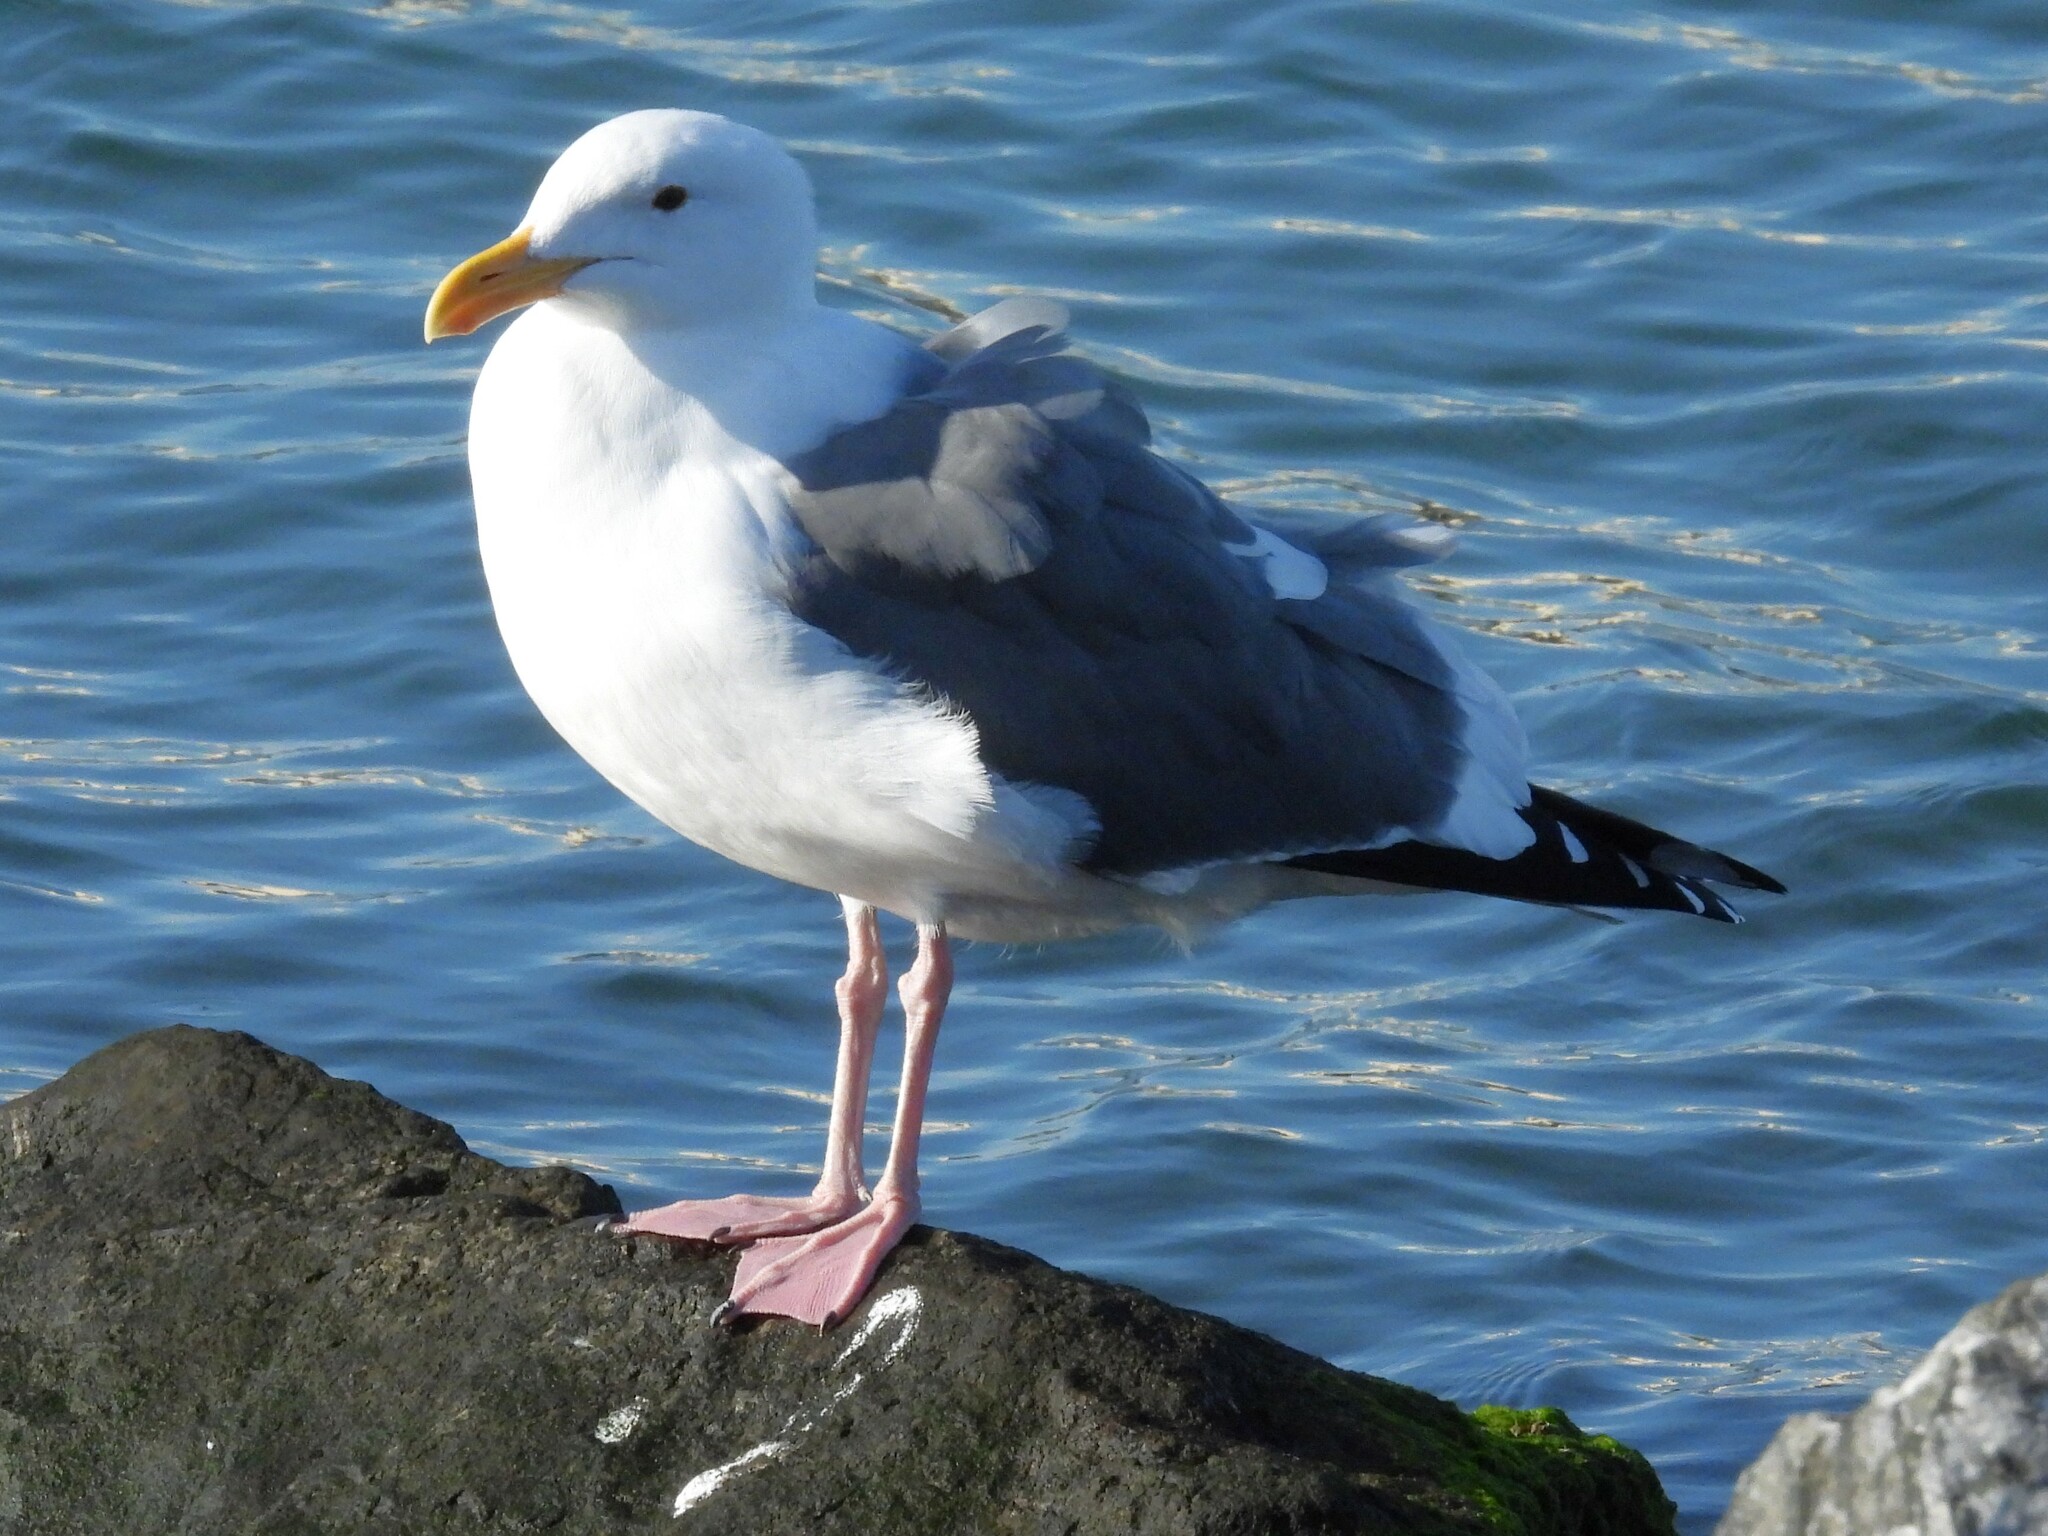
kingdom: Animalia
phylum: Chordata
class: Aves
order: Charadriiformes
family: Laridae
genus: Larus
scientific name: Larus occidentalis
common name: Western gull
